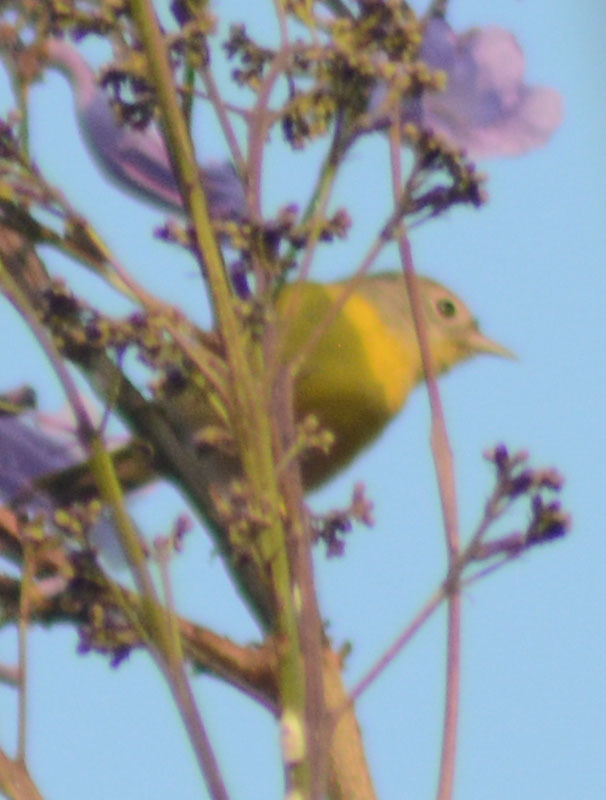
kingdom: Animalia
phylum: Chordata
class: Aves
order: Passeriformes
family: Parulidae
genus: Leiothlypis
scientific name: Leiothlypis ruficapilla
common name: Nashville warbler
